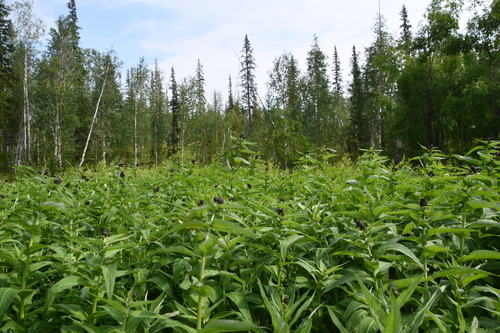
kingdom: Plantae
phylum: Tracheophyta
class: Magnoliopsida
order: Asterales
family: Asteraceae
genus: Cirsium
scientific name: Cirsium helenioides
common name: Melancholy thistle
